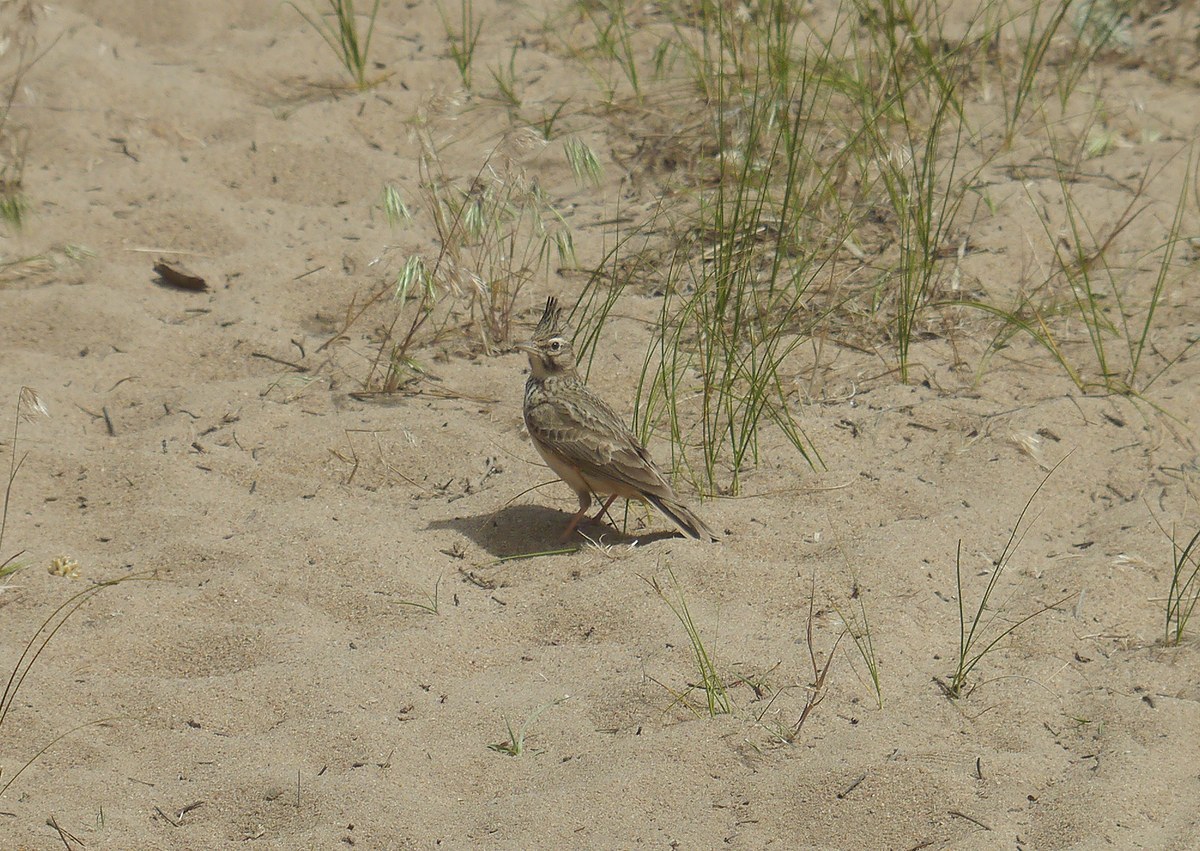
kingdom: Animalia
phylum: Chordata
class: Aves
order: Passeriformes
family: Alaudidae
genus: Galerida
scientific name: Galerida cristata
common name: Crested lark
